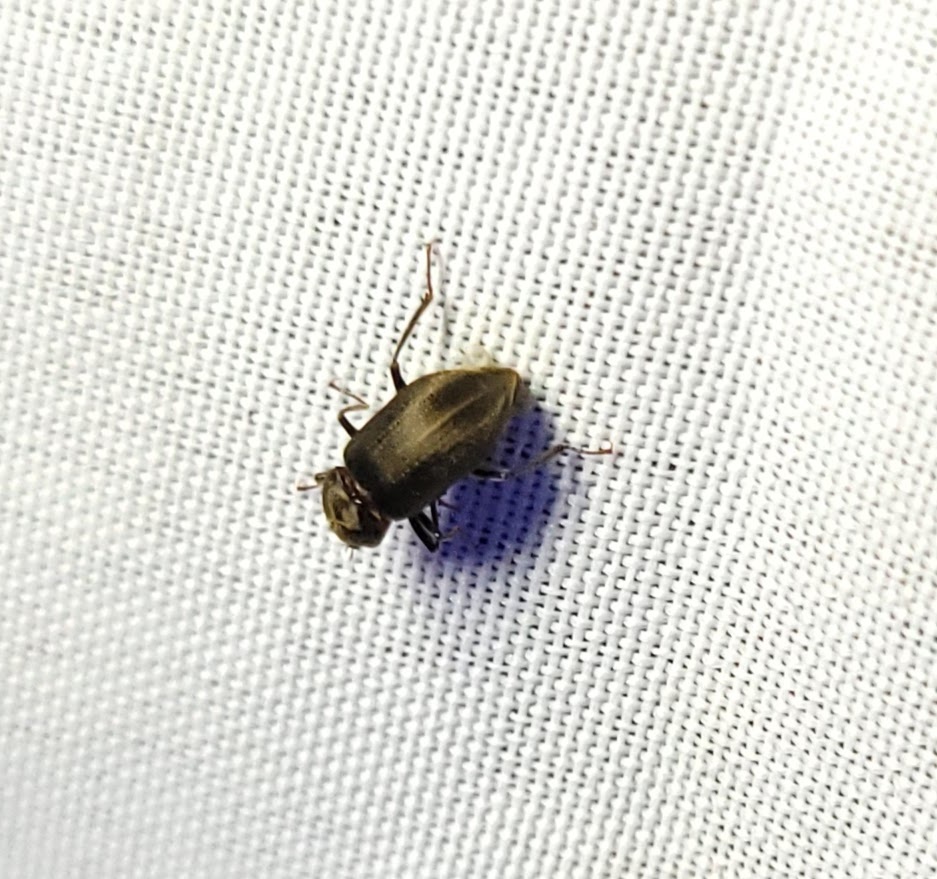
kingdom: Animalia
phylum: Arthropoda
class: Insecta
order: Coleoptera
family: Dryopidae
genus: Helichus
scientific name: Helichus lithophilus
